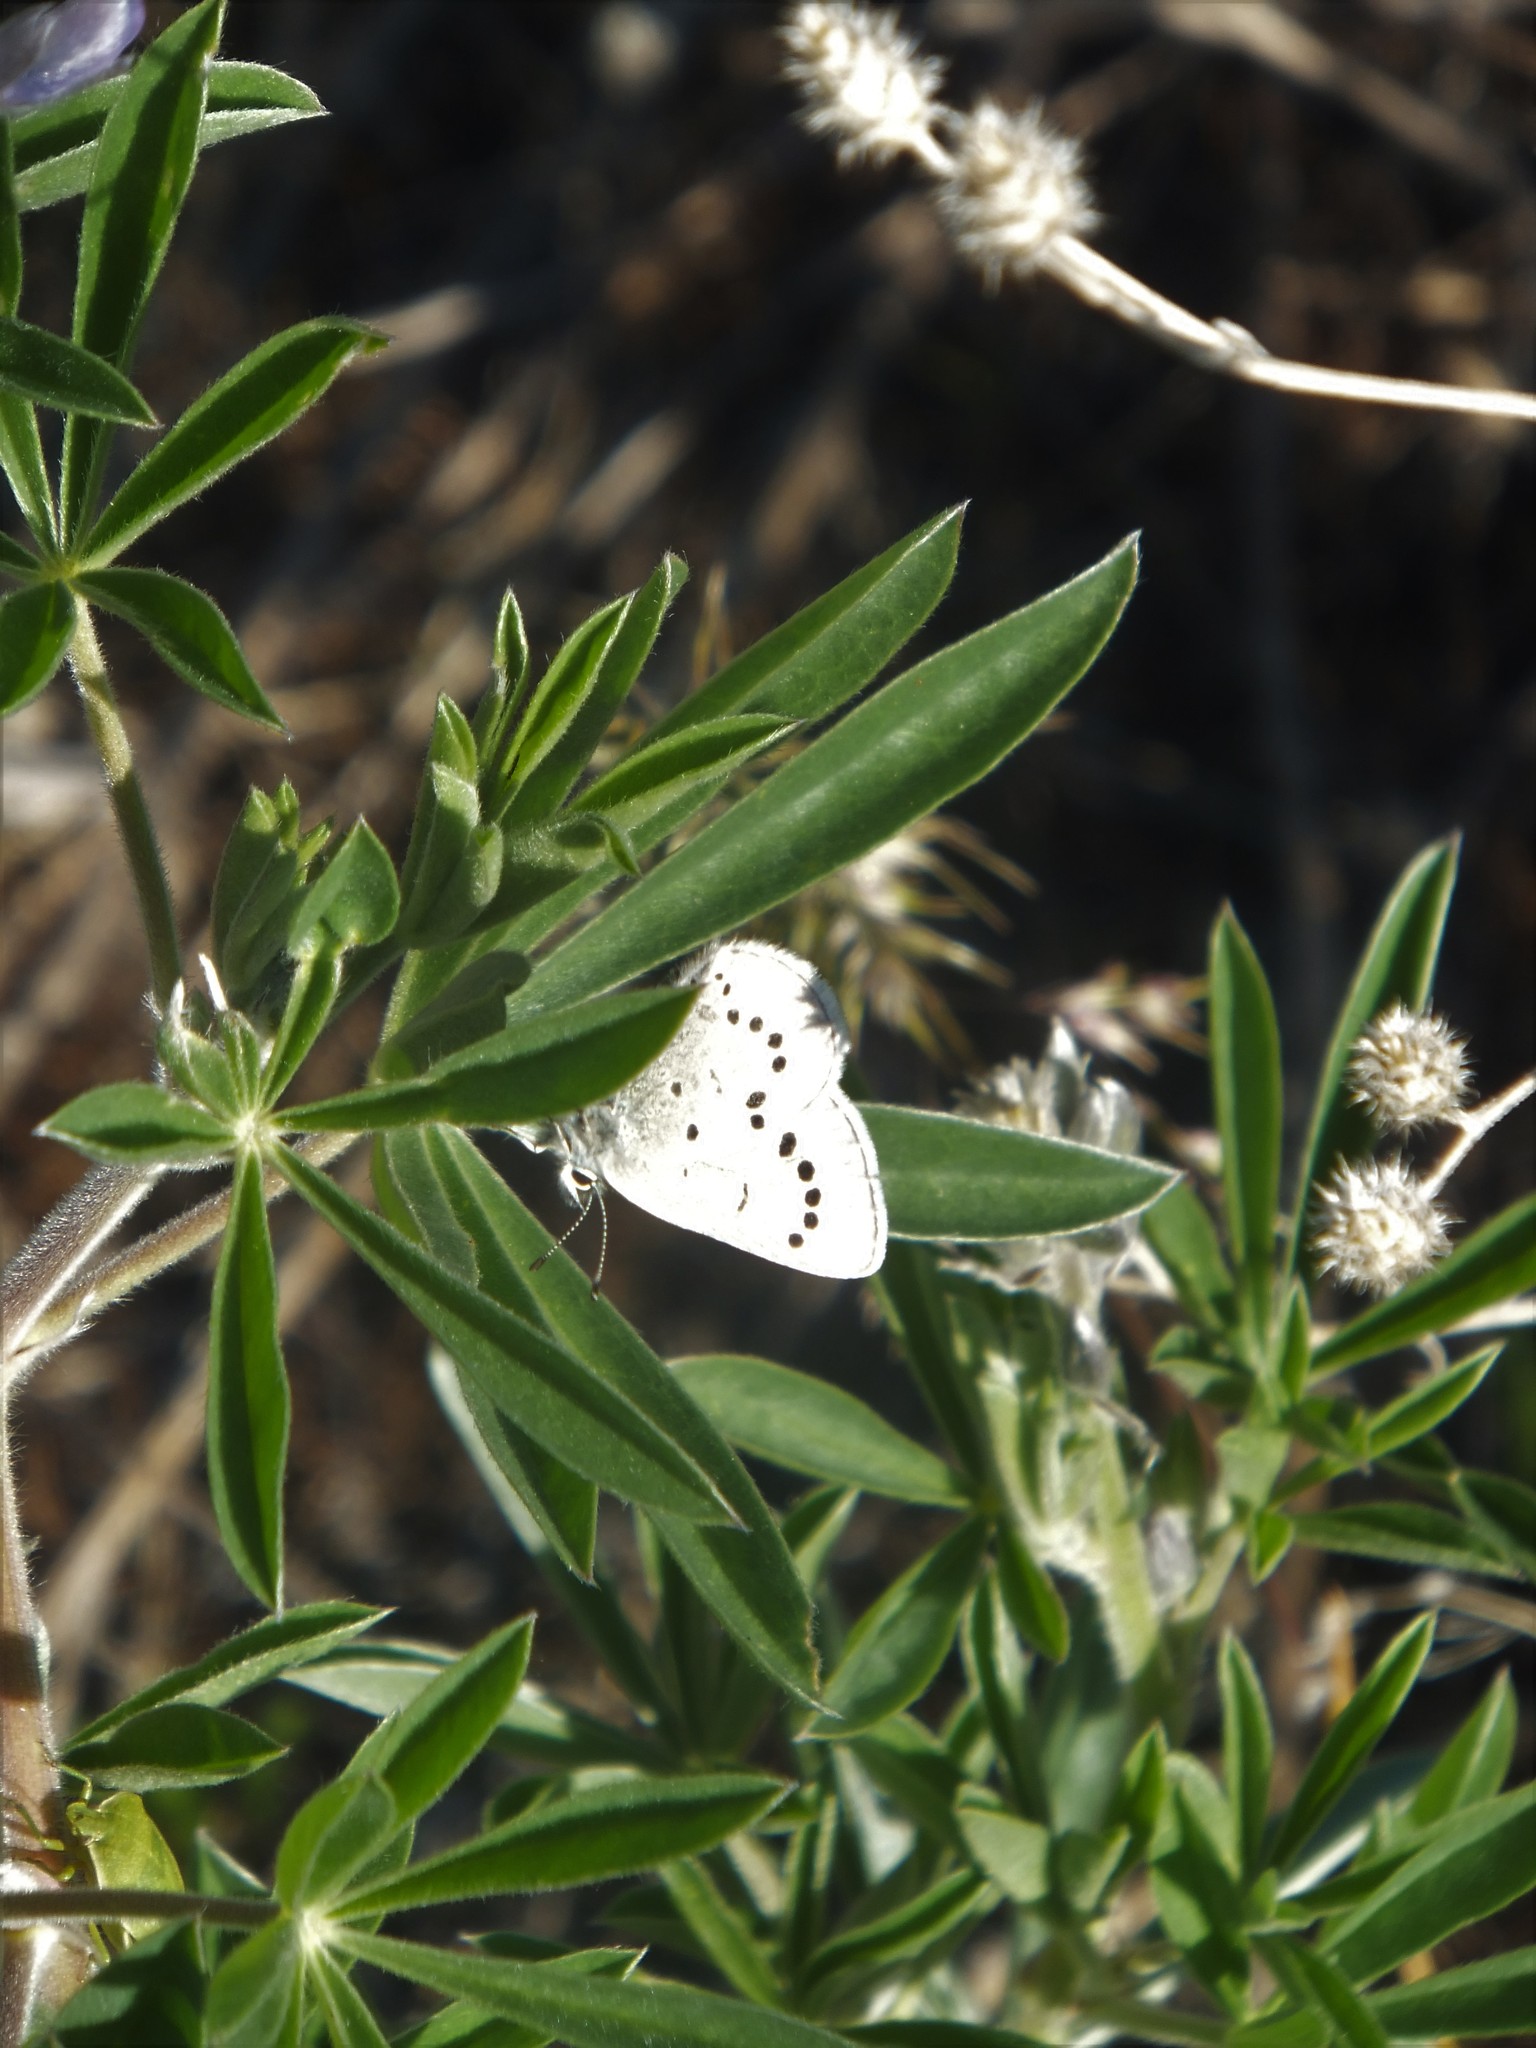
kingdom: Animalia
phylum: Arthropoda
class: Insecta
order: Lepidoptera
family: Lycaenidae
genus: Glaucopsyche
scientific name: Glaucopsyche lygdamus
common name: Silvery blue
